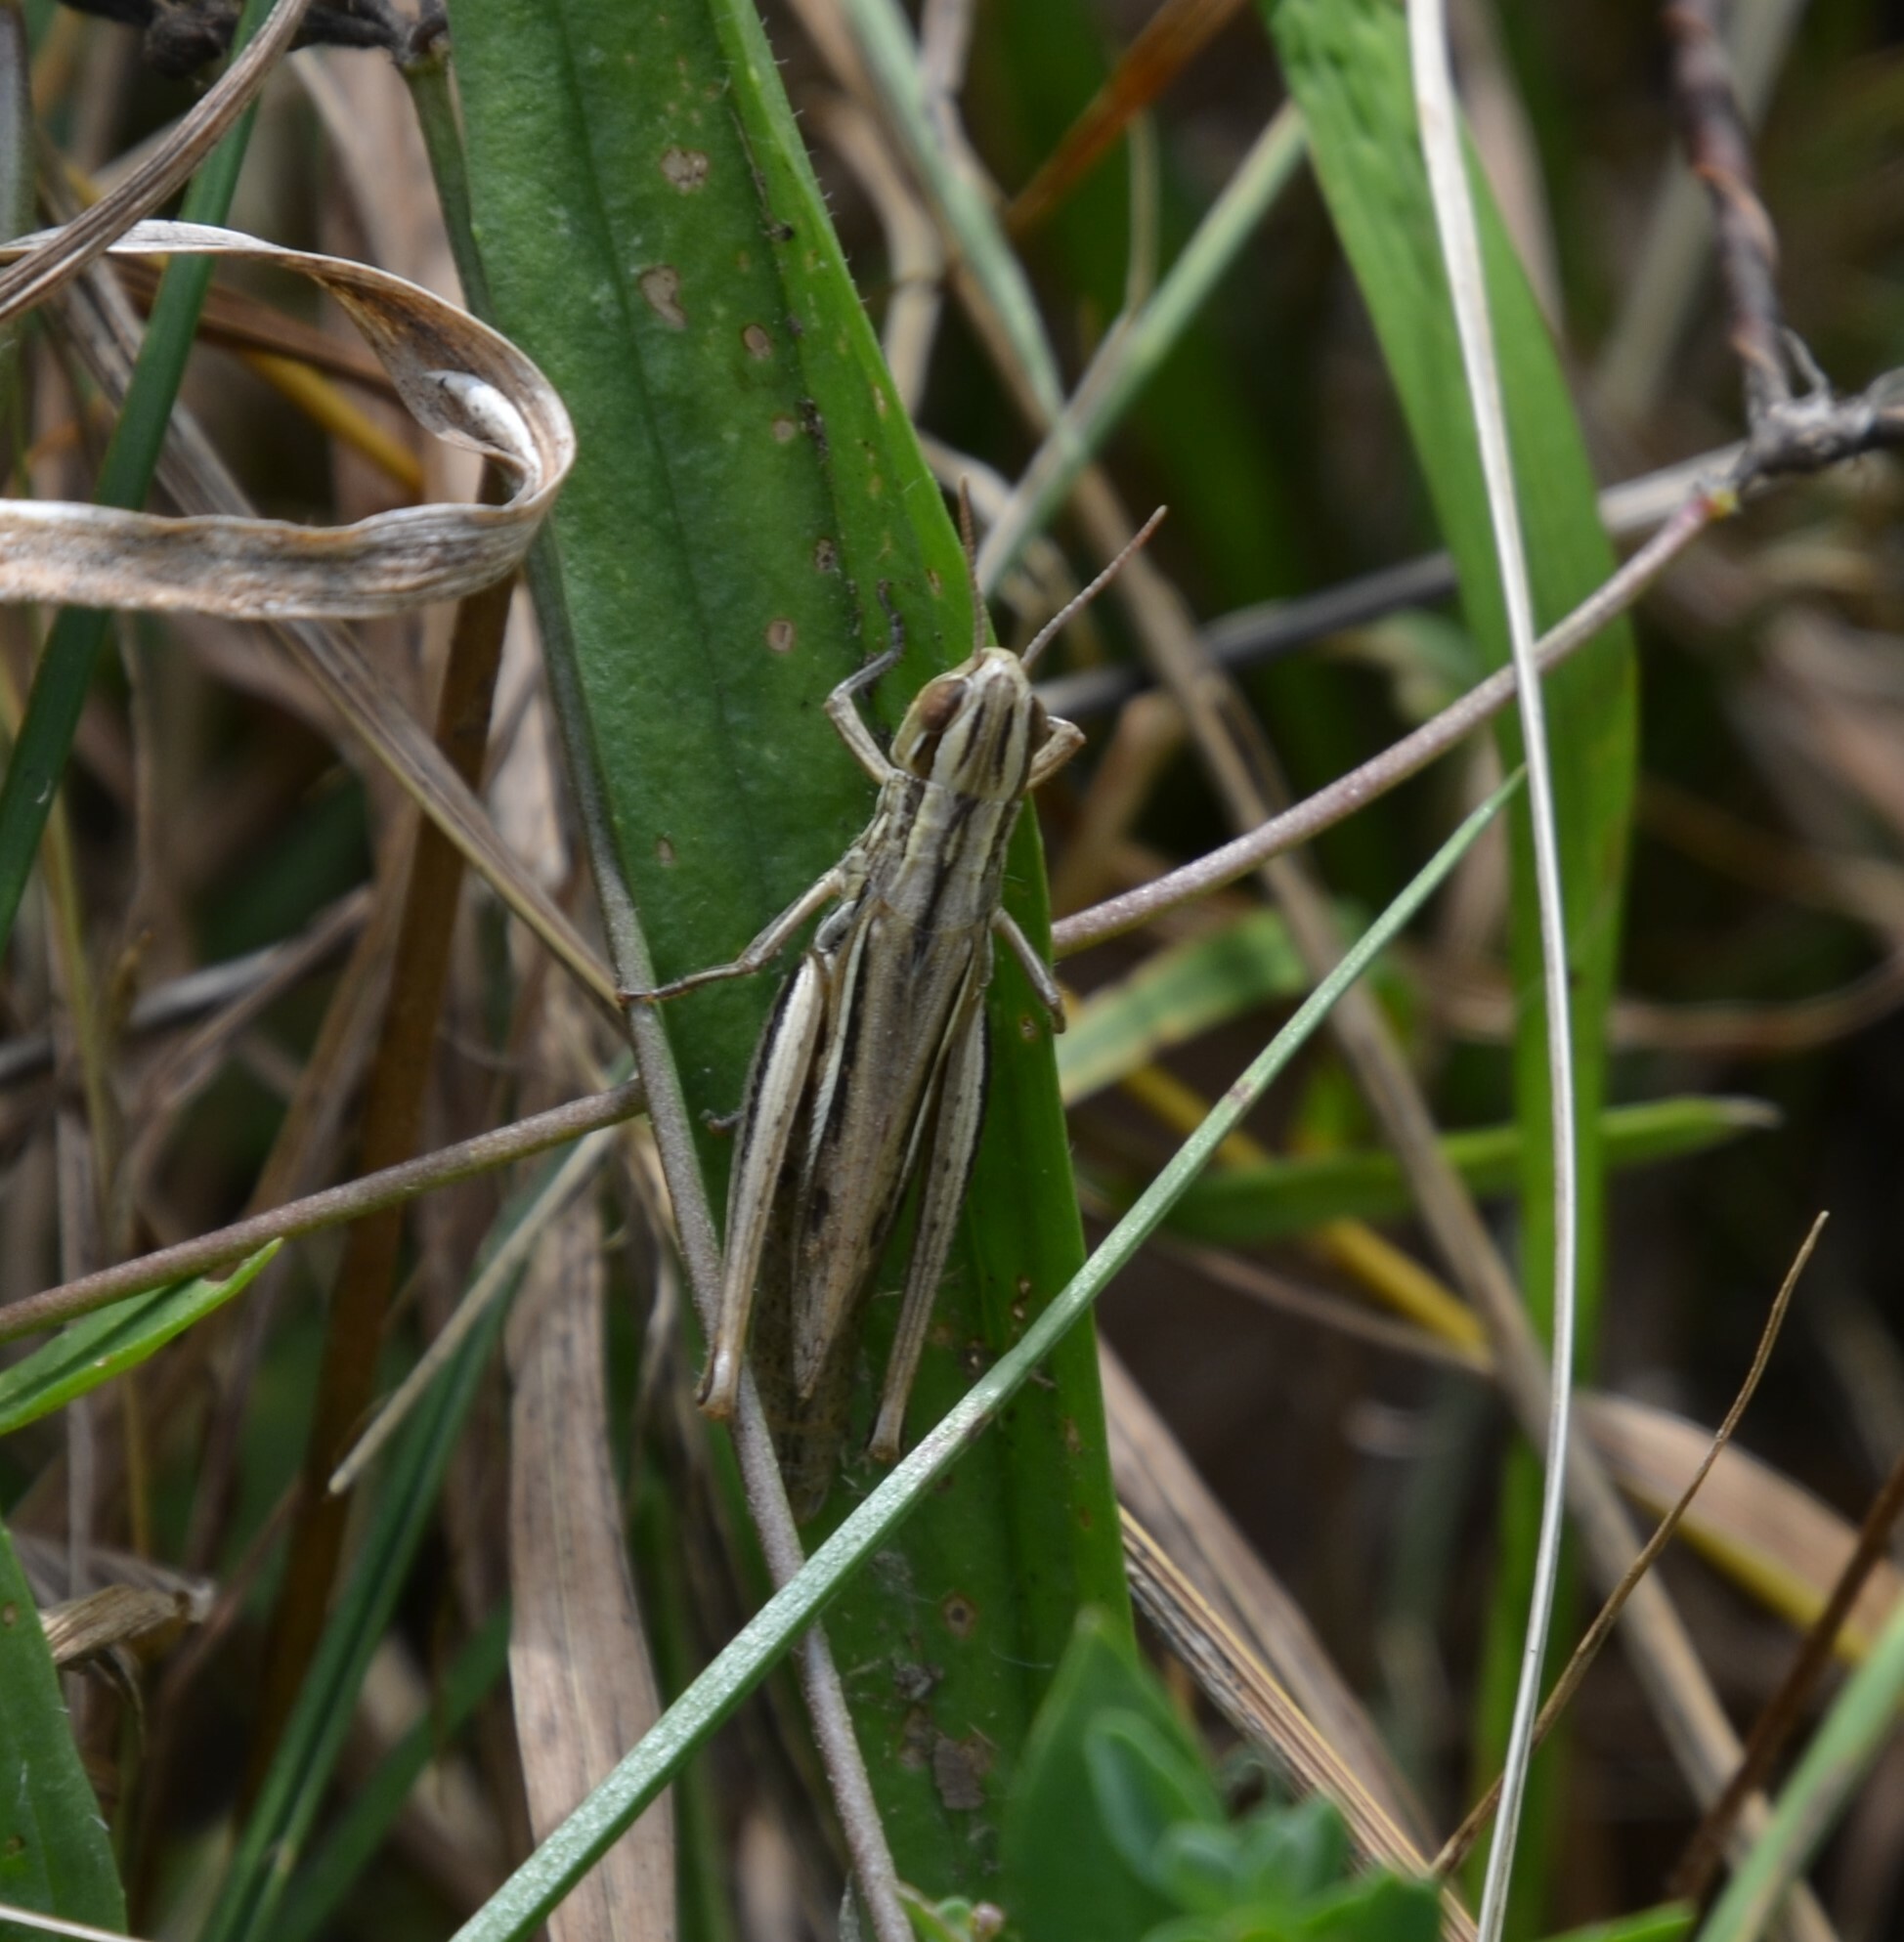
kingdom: Animalia
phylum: Arthropoda
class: Insecta
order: Orthoptera
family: Acrididae
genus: Euchorthippus
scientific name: Euchorthippus declivus
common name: Common straw grasshopper
